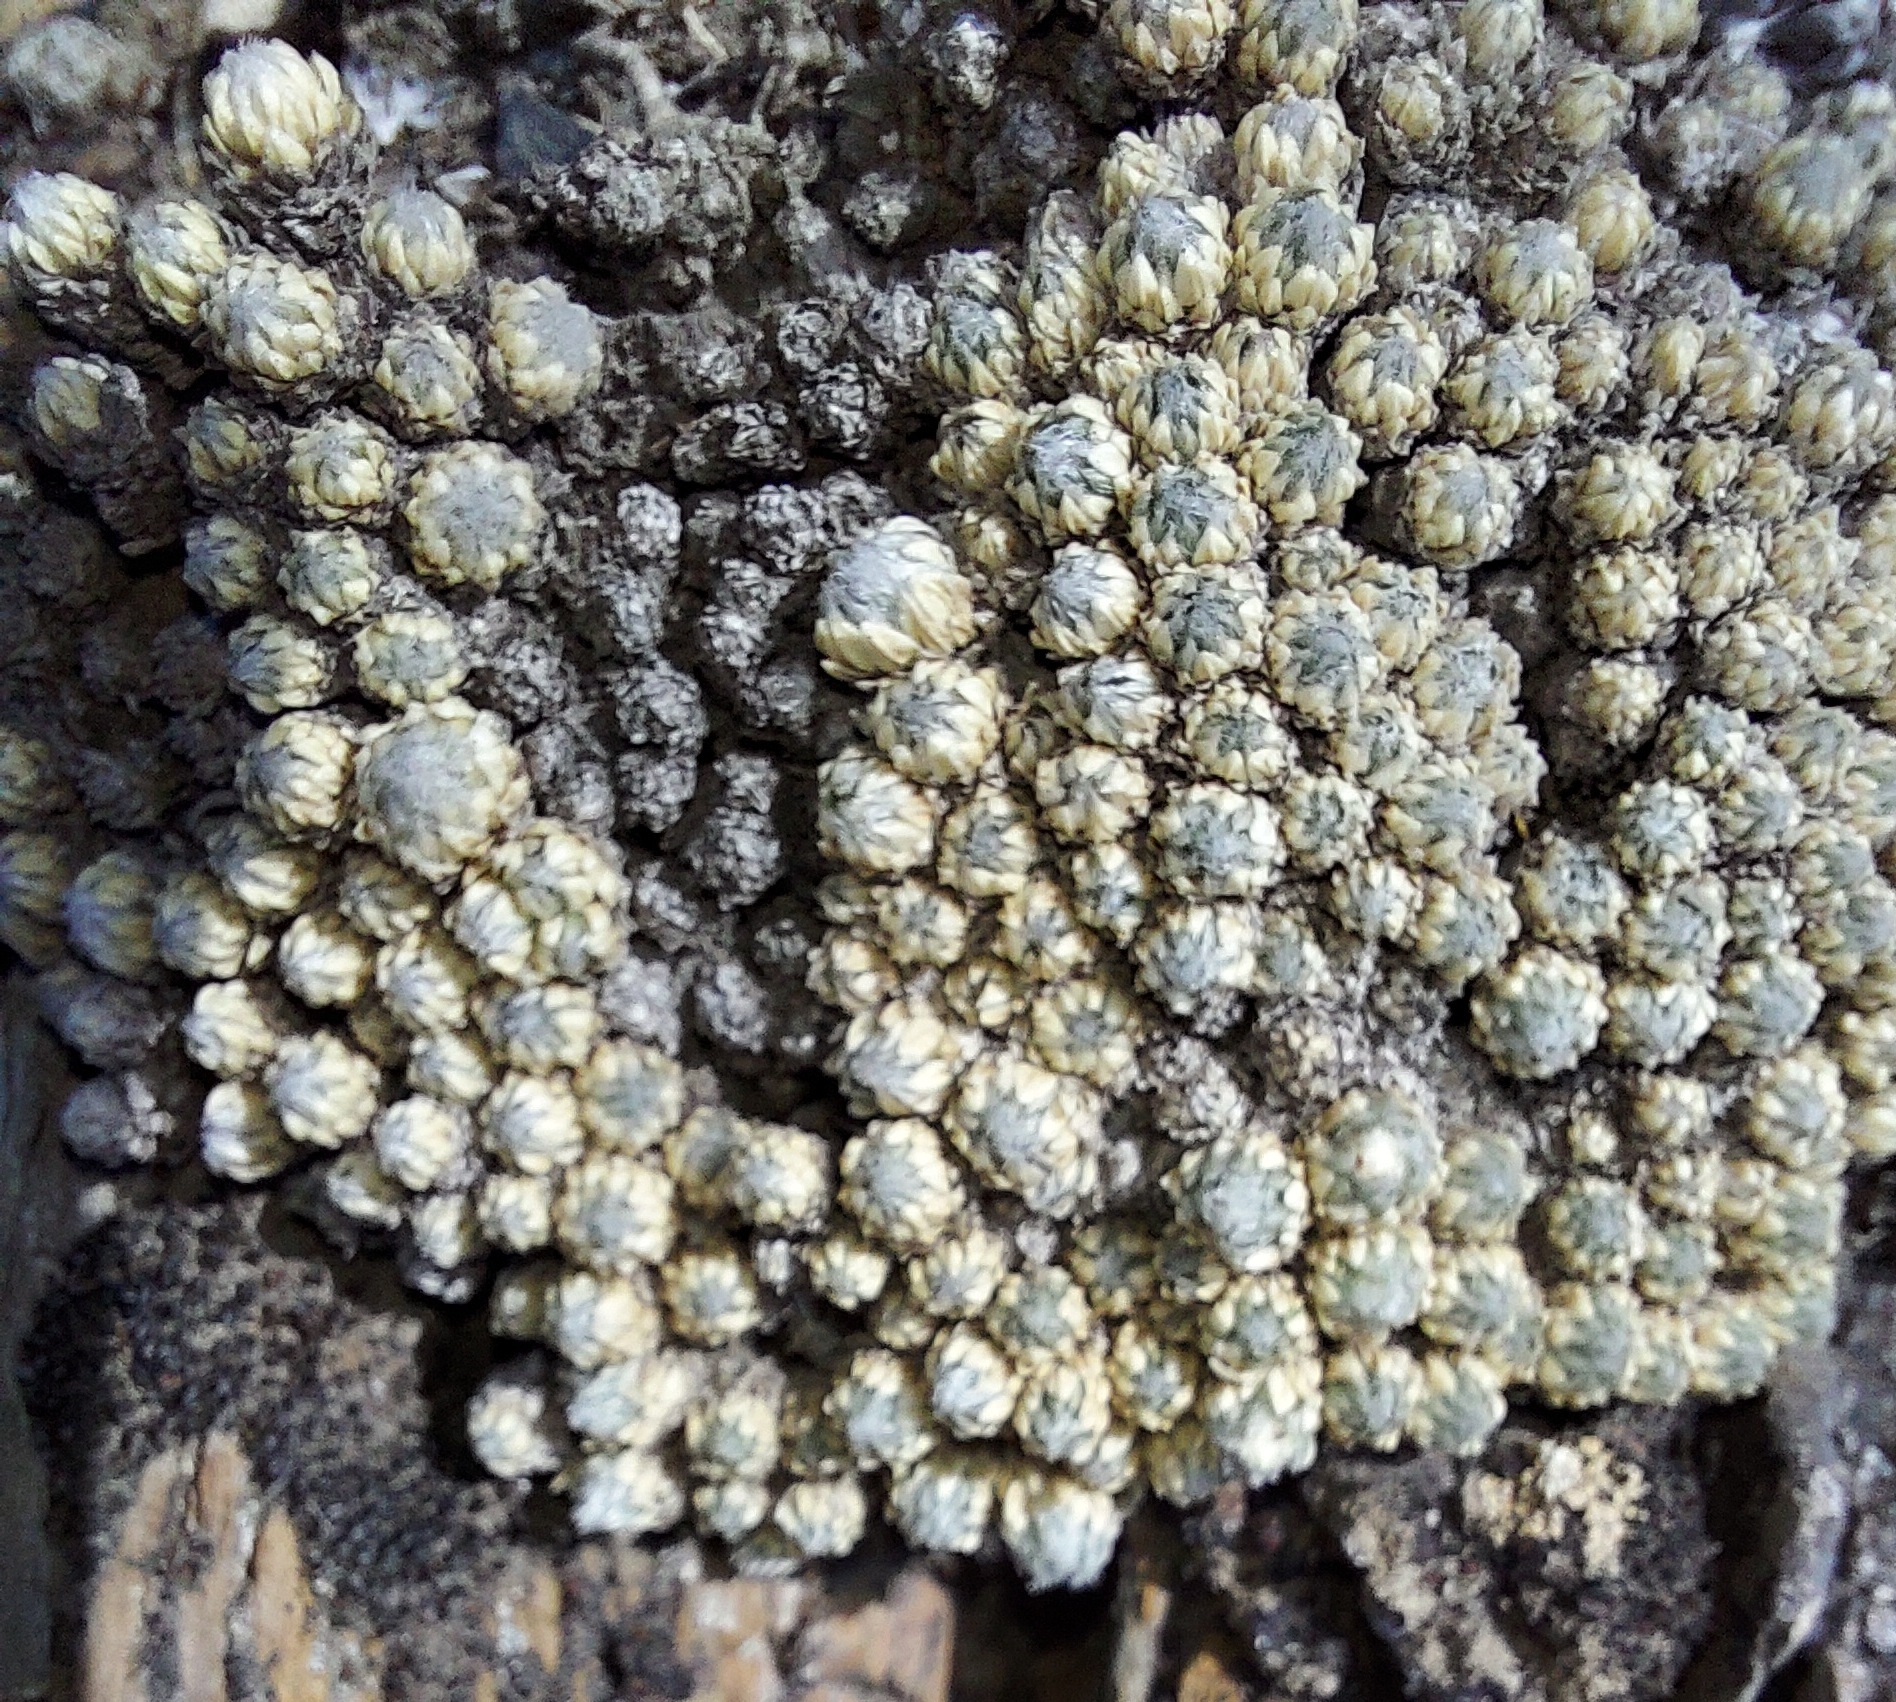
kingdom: Plantae
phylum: Tracheophyta
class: Magnoliopsida
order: Ericales
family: Primulaceae
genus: Androsace
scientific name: Androsace incana
